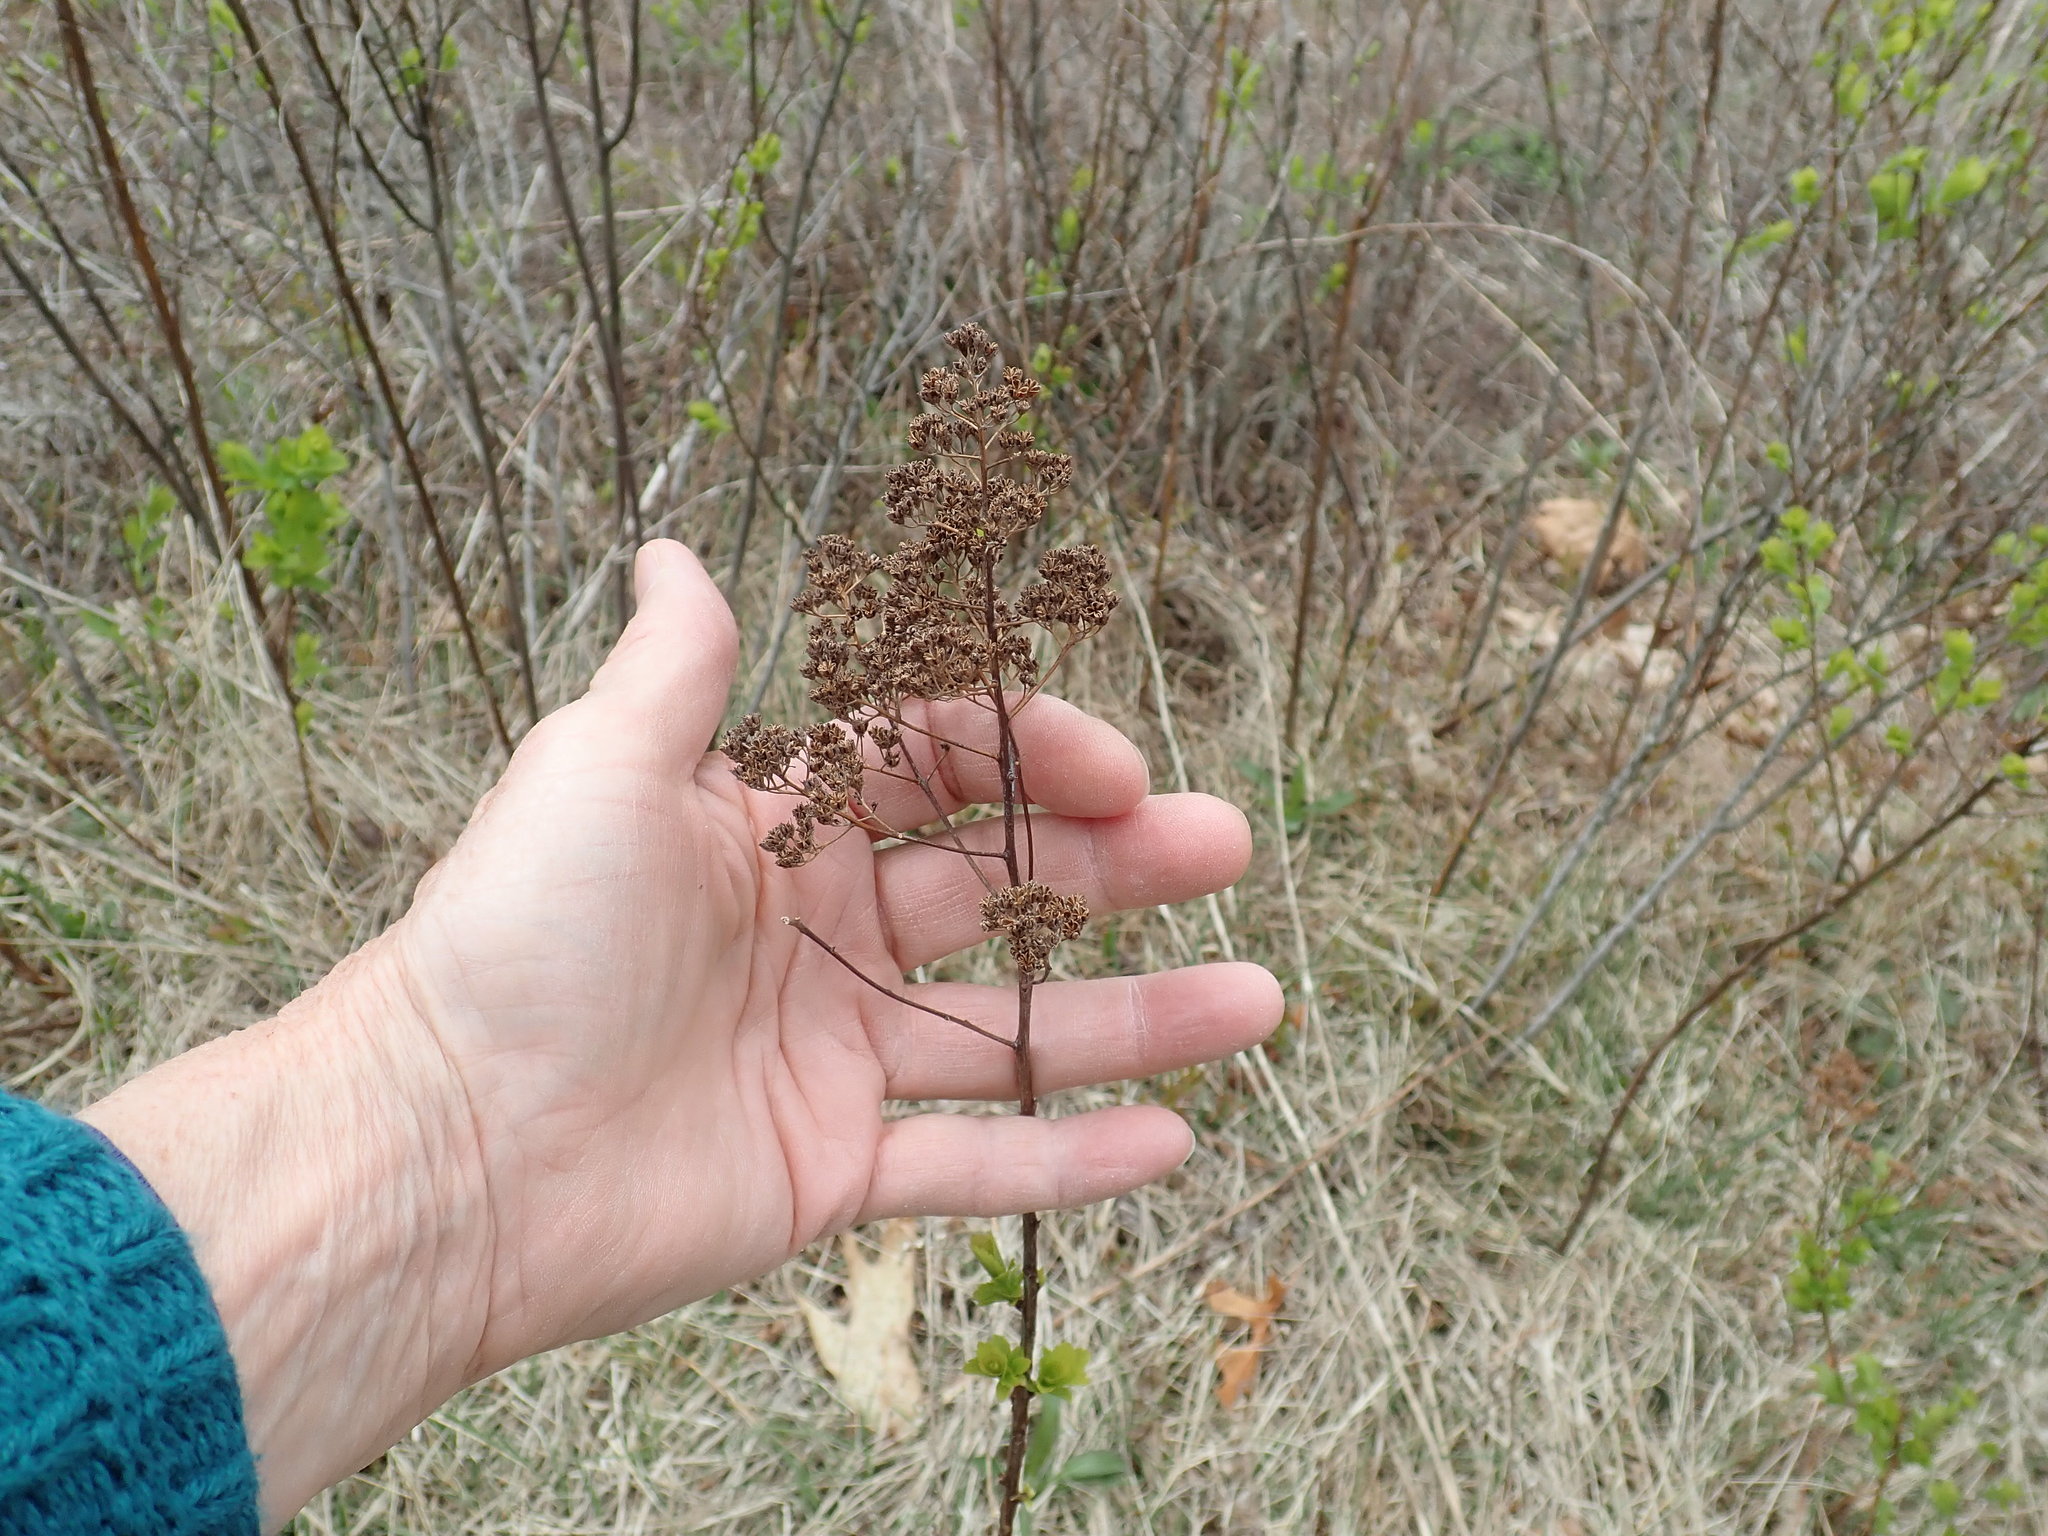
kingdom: Plantae
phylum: Tracheophyta
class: Magnoliopsida
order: Rosales
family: Rosaceae
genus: Spiraea
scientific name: Spiraea alba
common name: Pale bridewort
